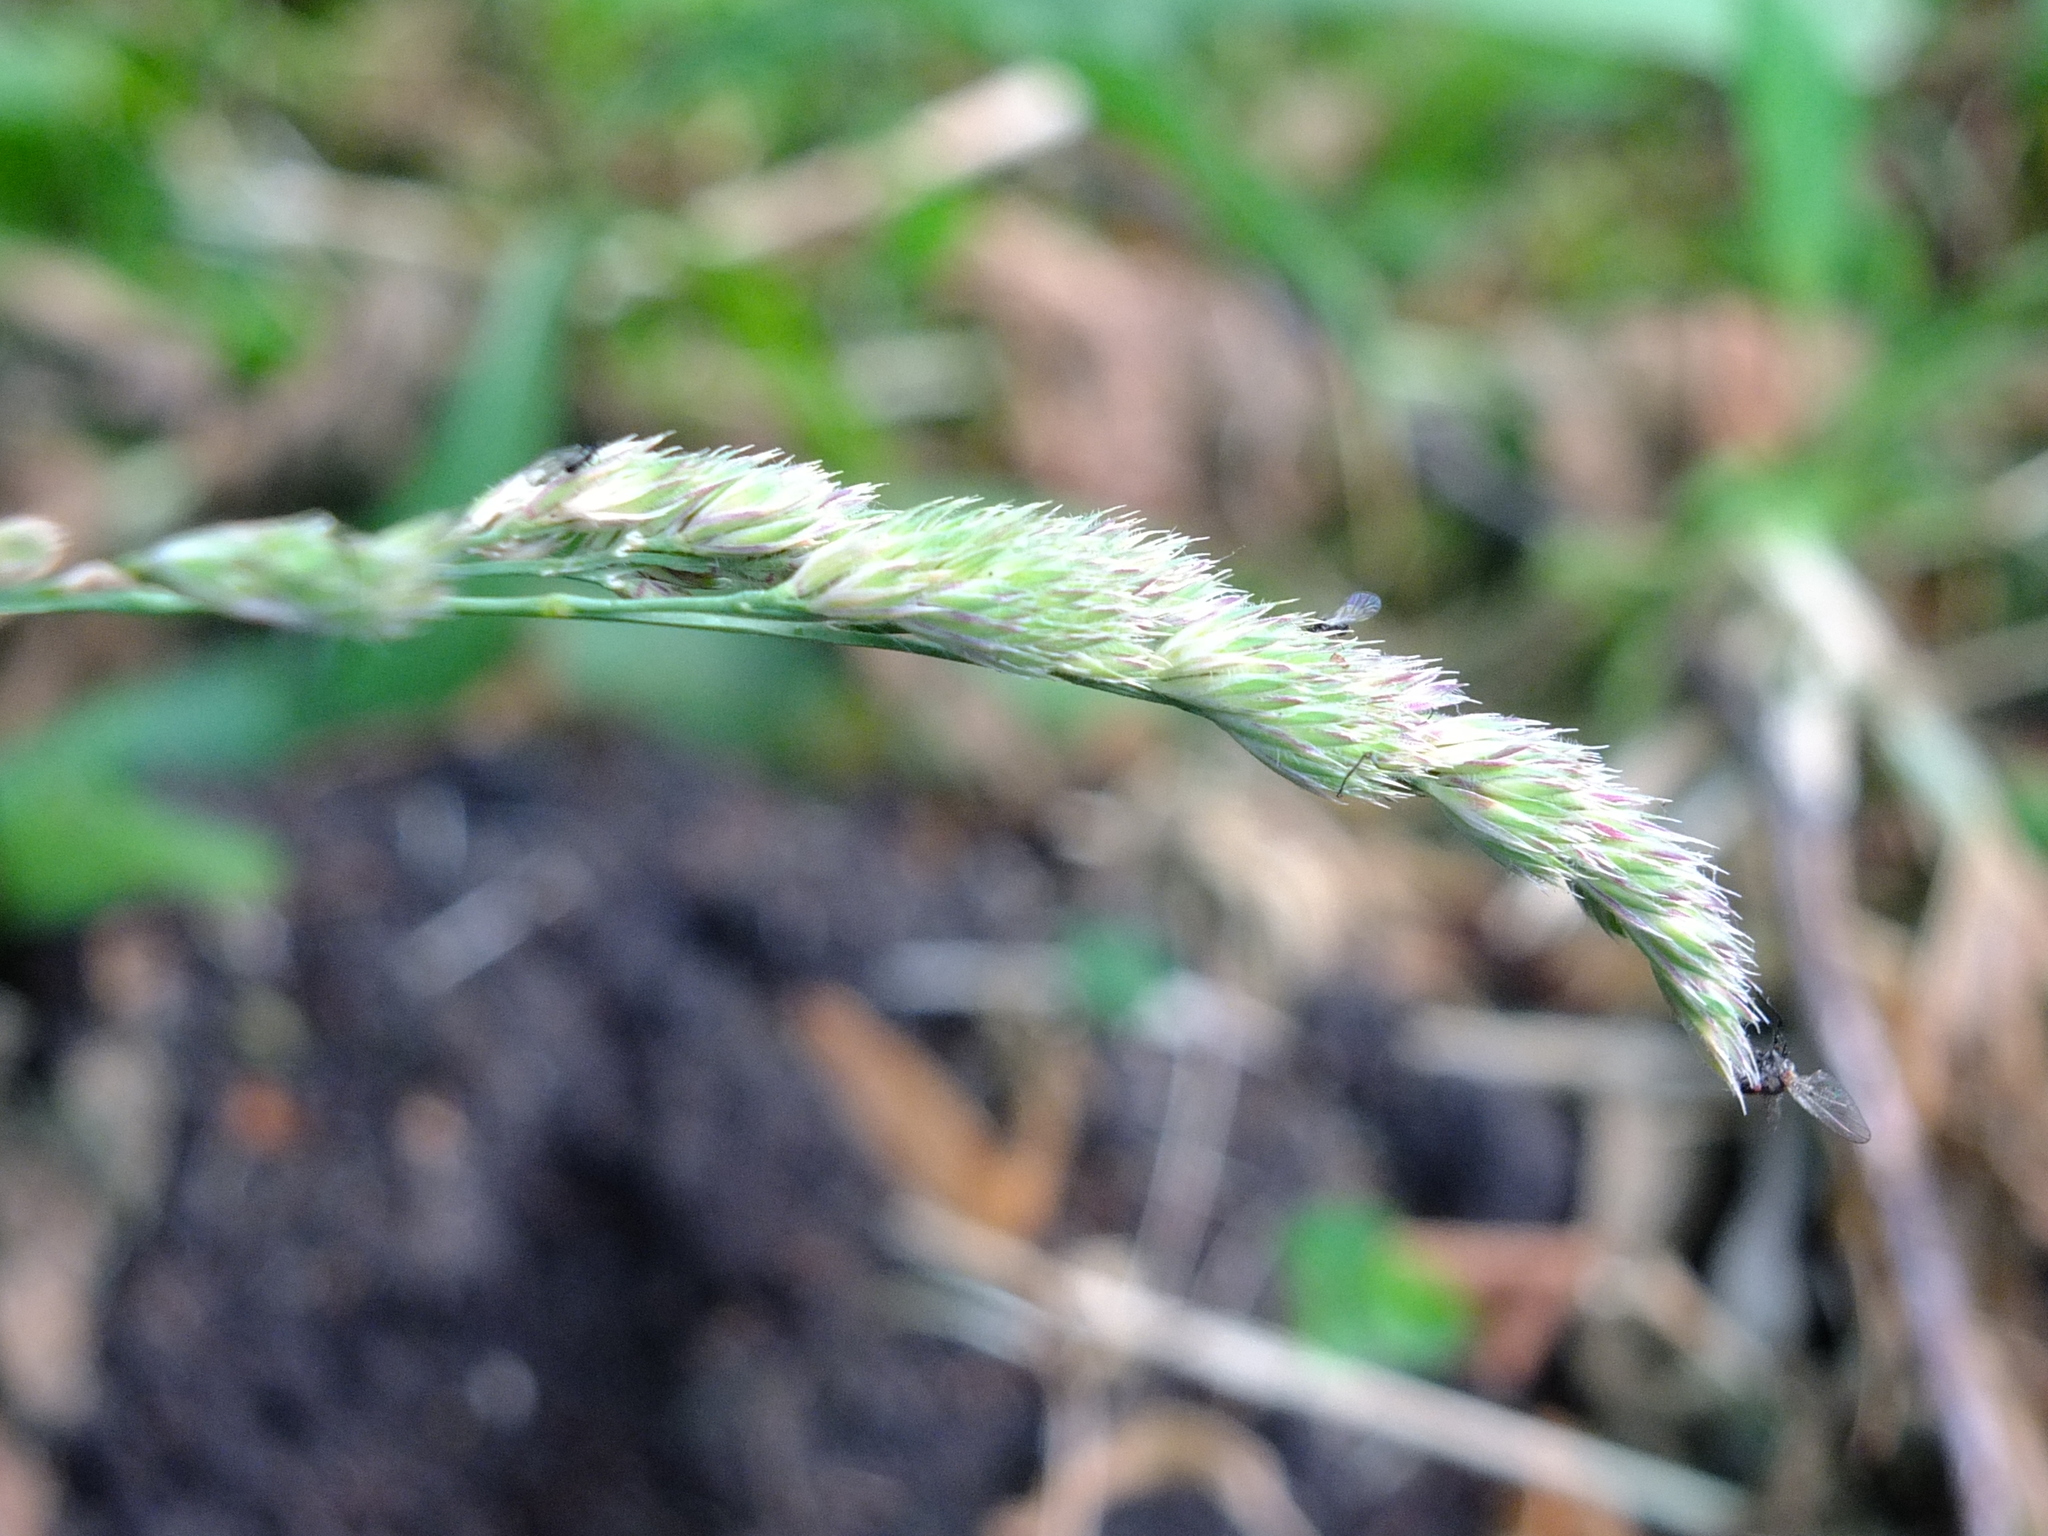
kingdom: Plantae
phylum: Tracheophyta
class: Liliopsida
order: Poales
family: Poaceae
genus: Dactylis
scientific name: Dactylis glomerata
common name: Orchardgrass
